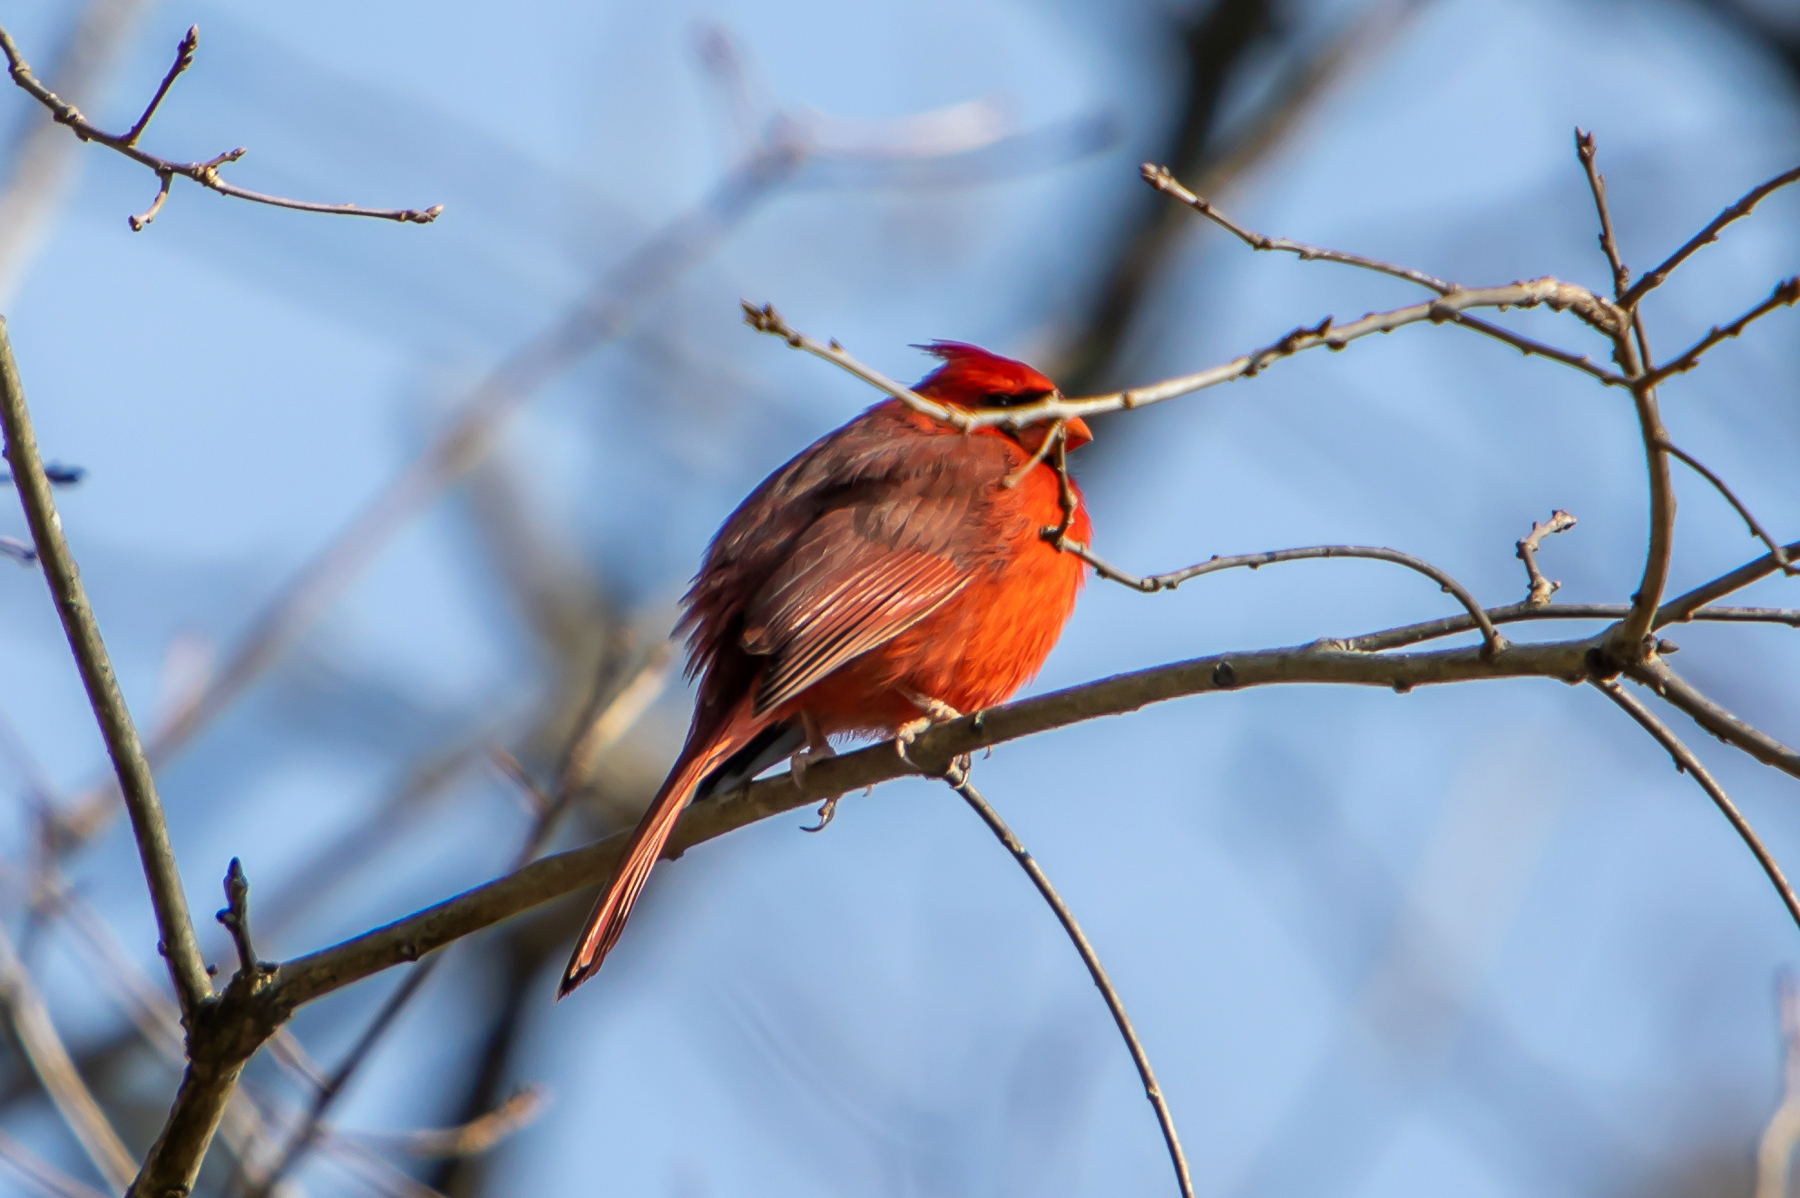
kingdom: Animalia
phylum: Chordata
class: Aves
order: Passeriformes
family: Cardinalidae
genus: Cardinalis
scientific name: Cardinalis cardinalis
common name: Northern cardinal
